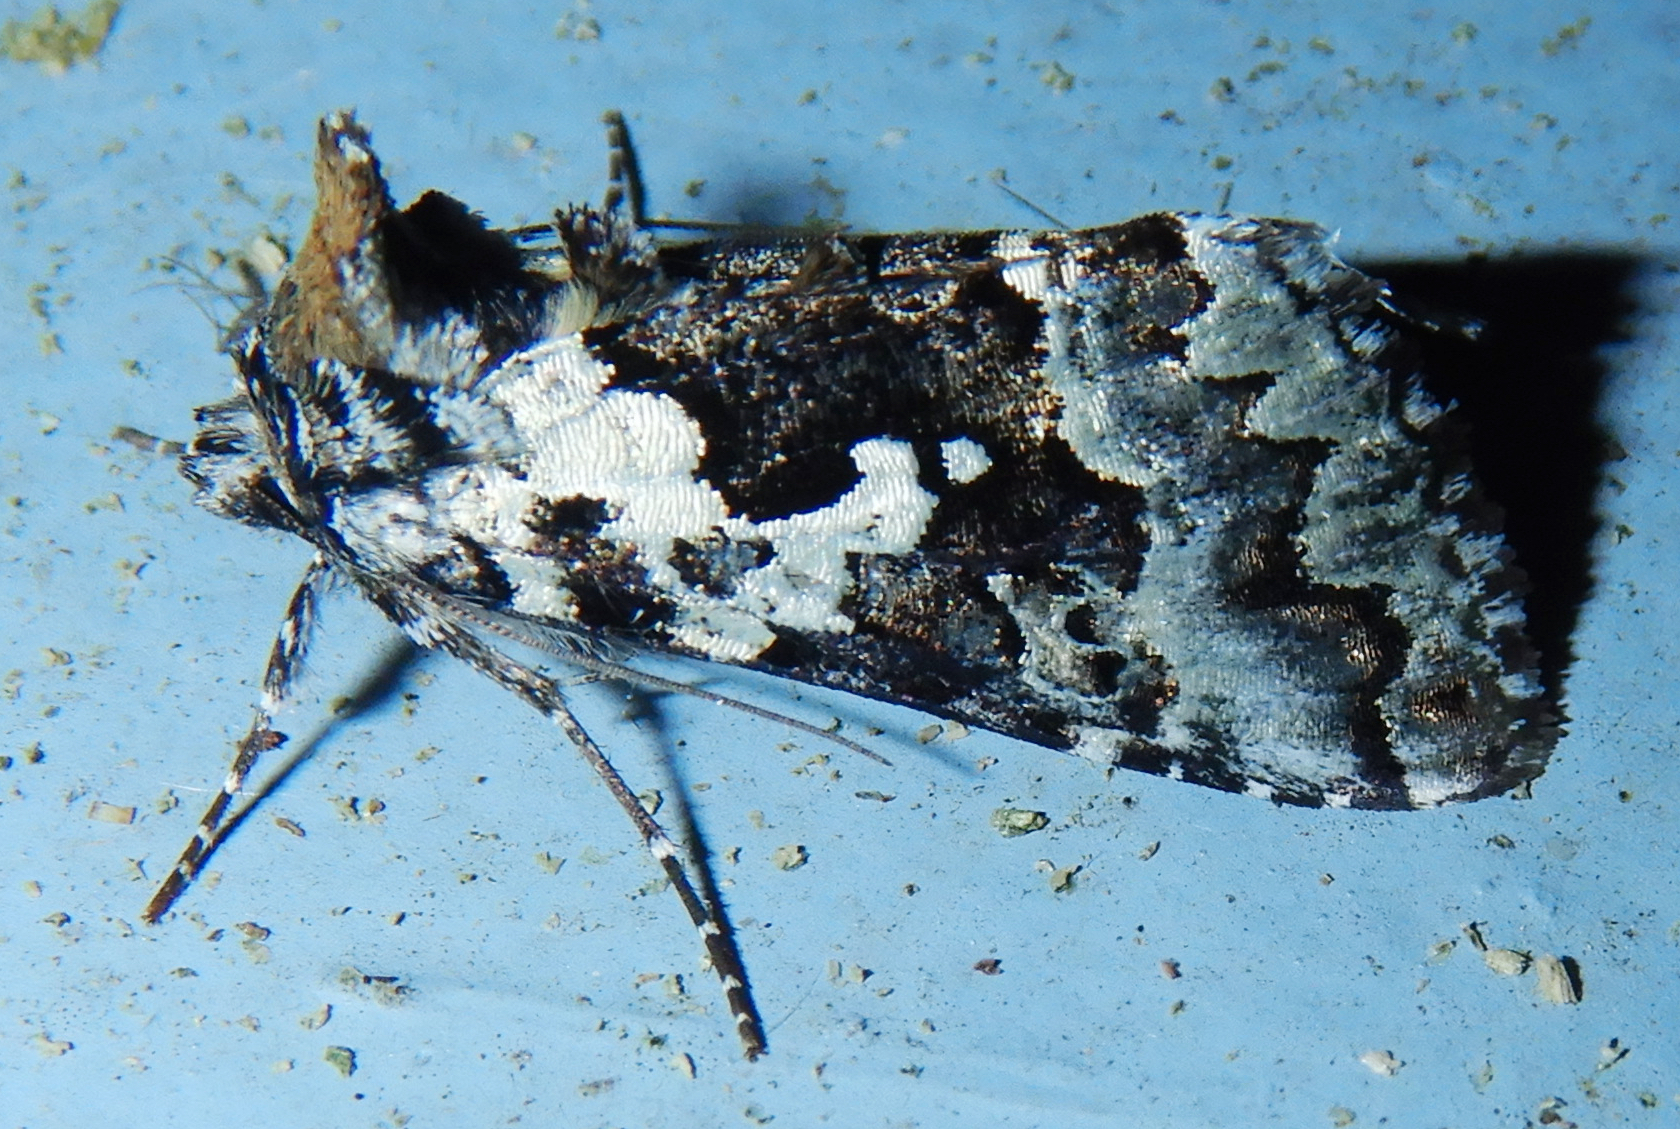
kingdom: Animalia
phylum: Arthropoda
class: Insecta
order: Lepidoptera
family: Noctuidae
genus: Syngrapha
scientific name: Syngrapha rectangula
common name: Angulated cutworm
